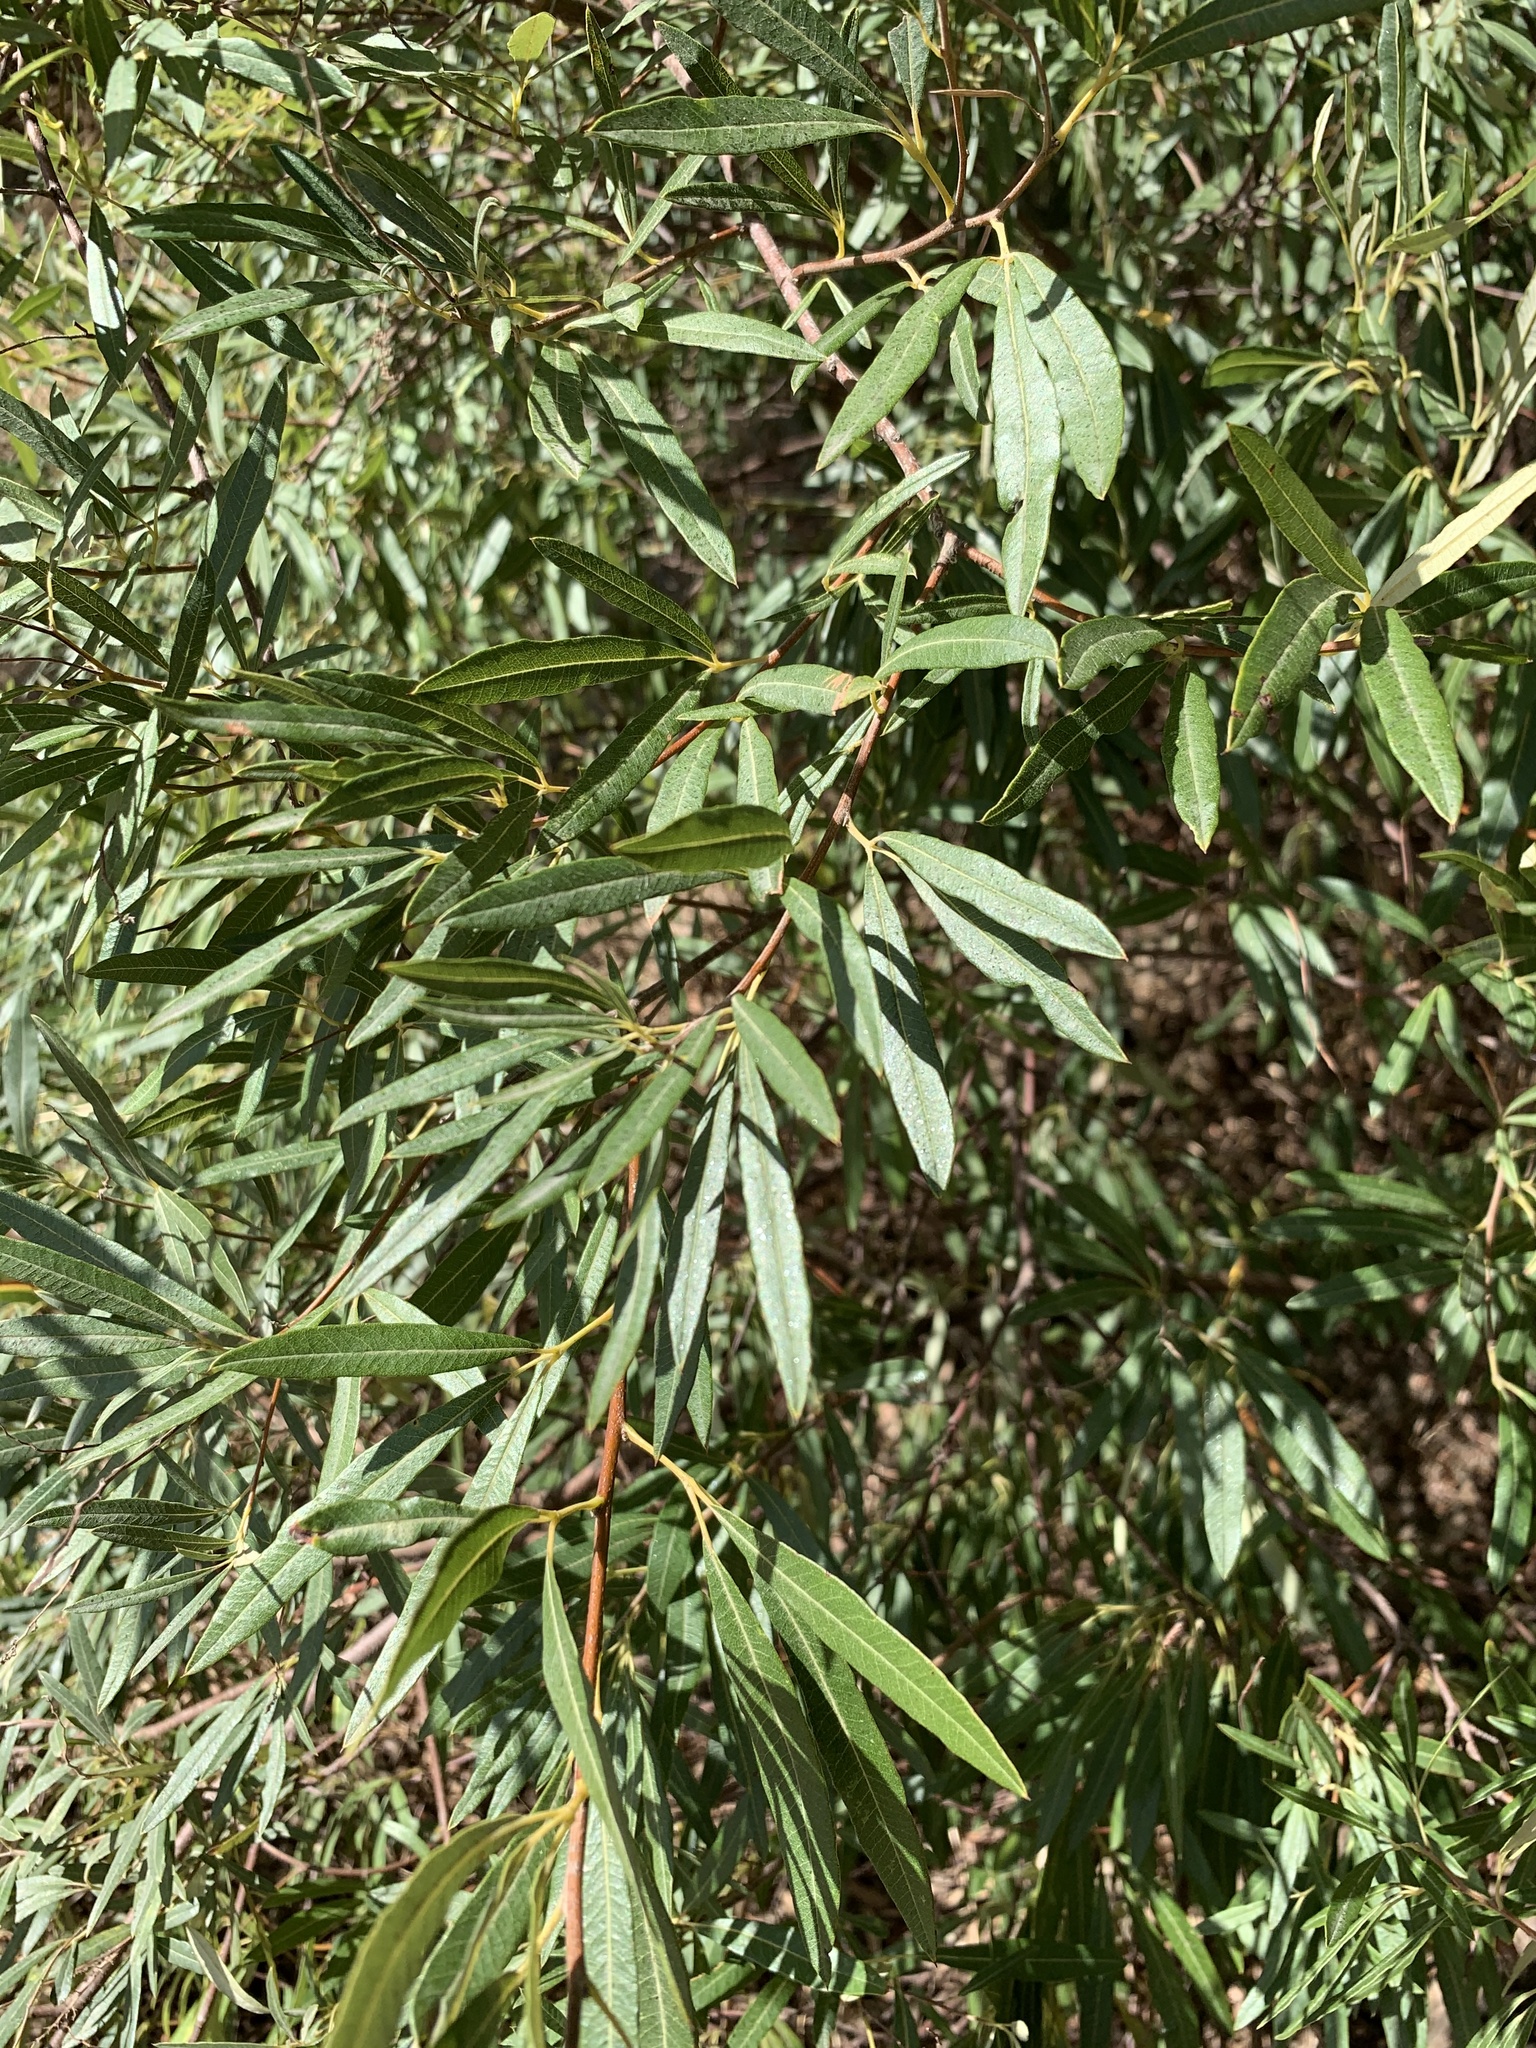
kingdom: Plantae
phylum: Tracheophyta
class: Magnoliopsida
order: Sapindales
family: Anacardiaceae
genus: Searsia
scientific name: Searsia angustifolia
